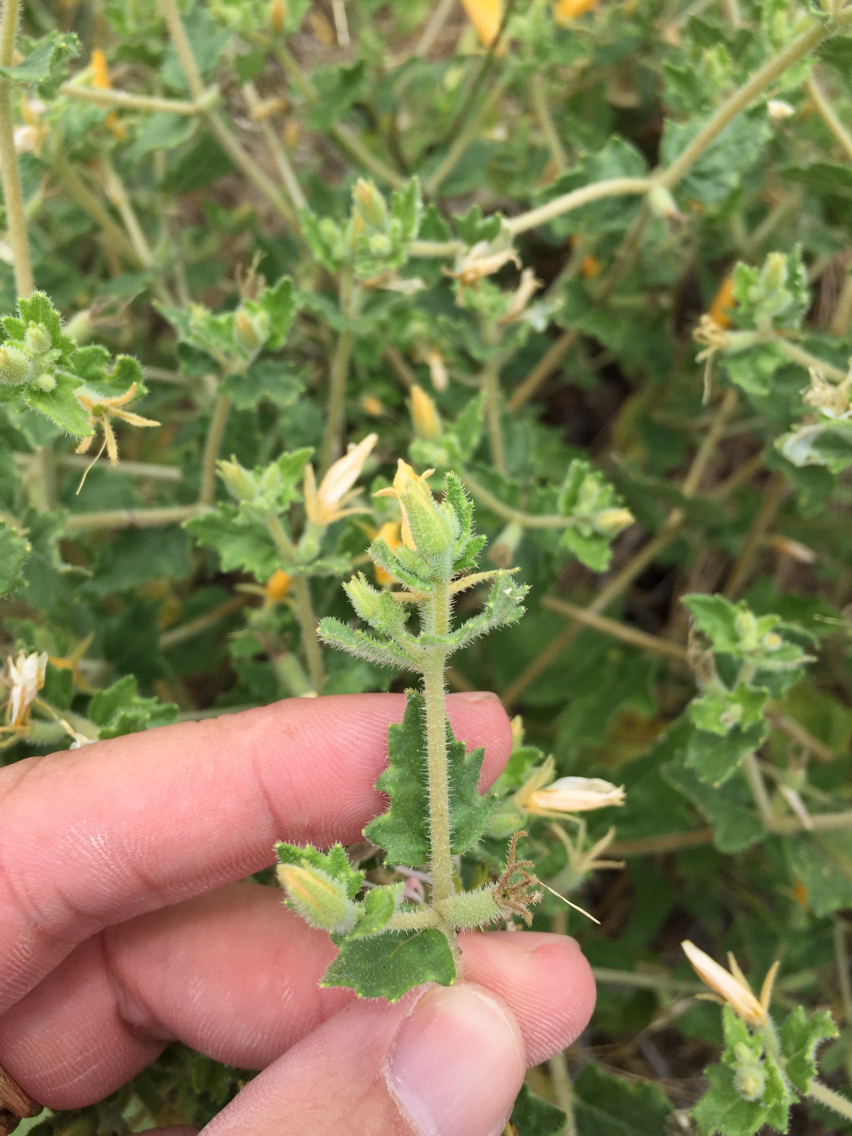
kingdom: Plantae
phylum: Tracheophyta
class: Magnoliopsida
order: Cornales
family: Loasaceae
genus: Mentzelia
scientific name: Mentzelia oligosperma
